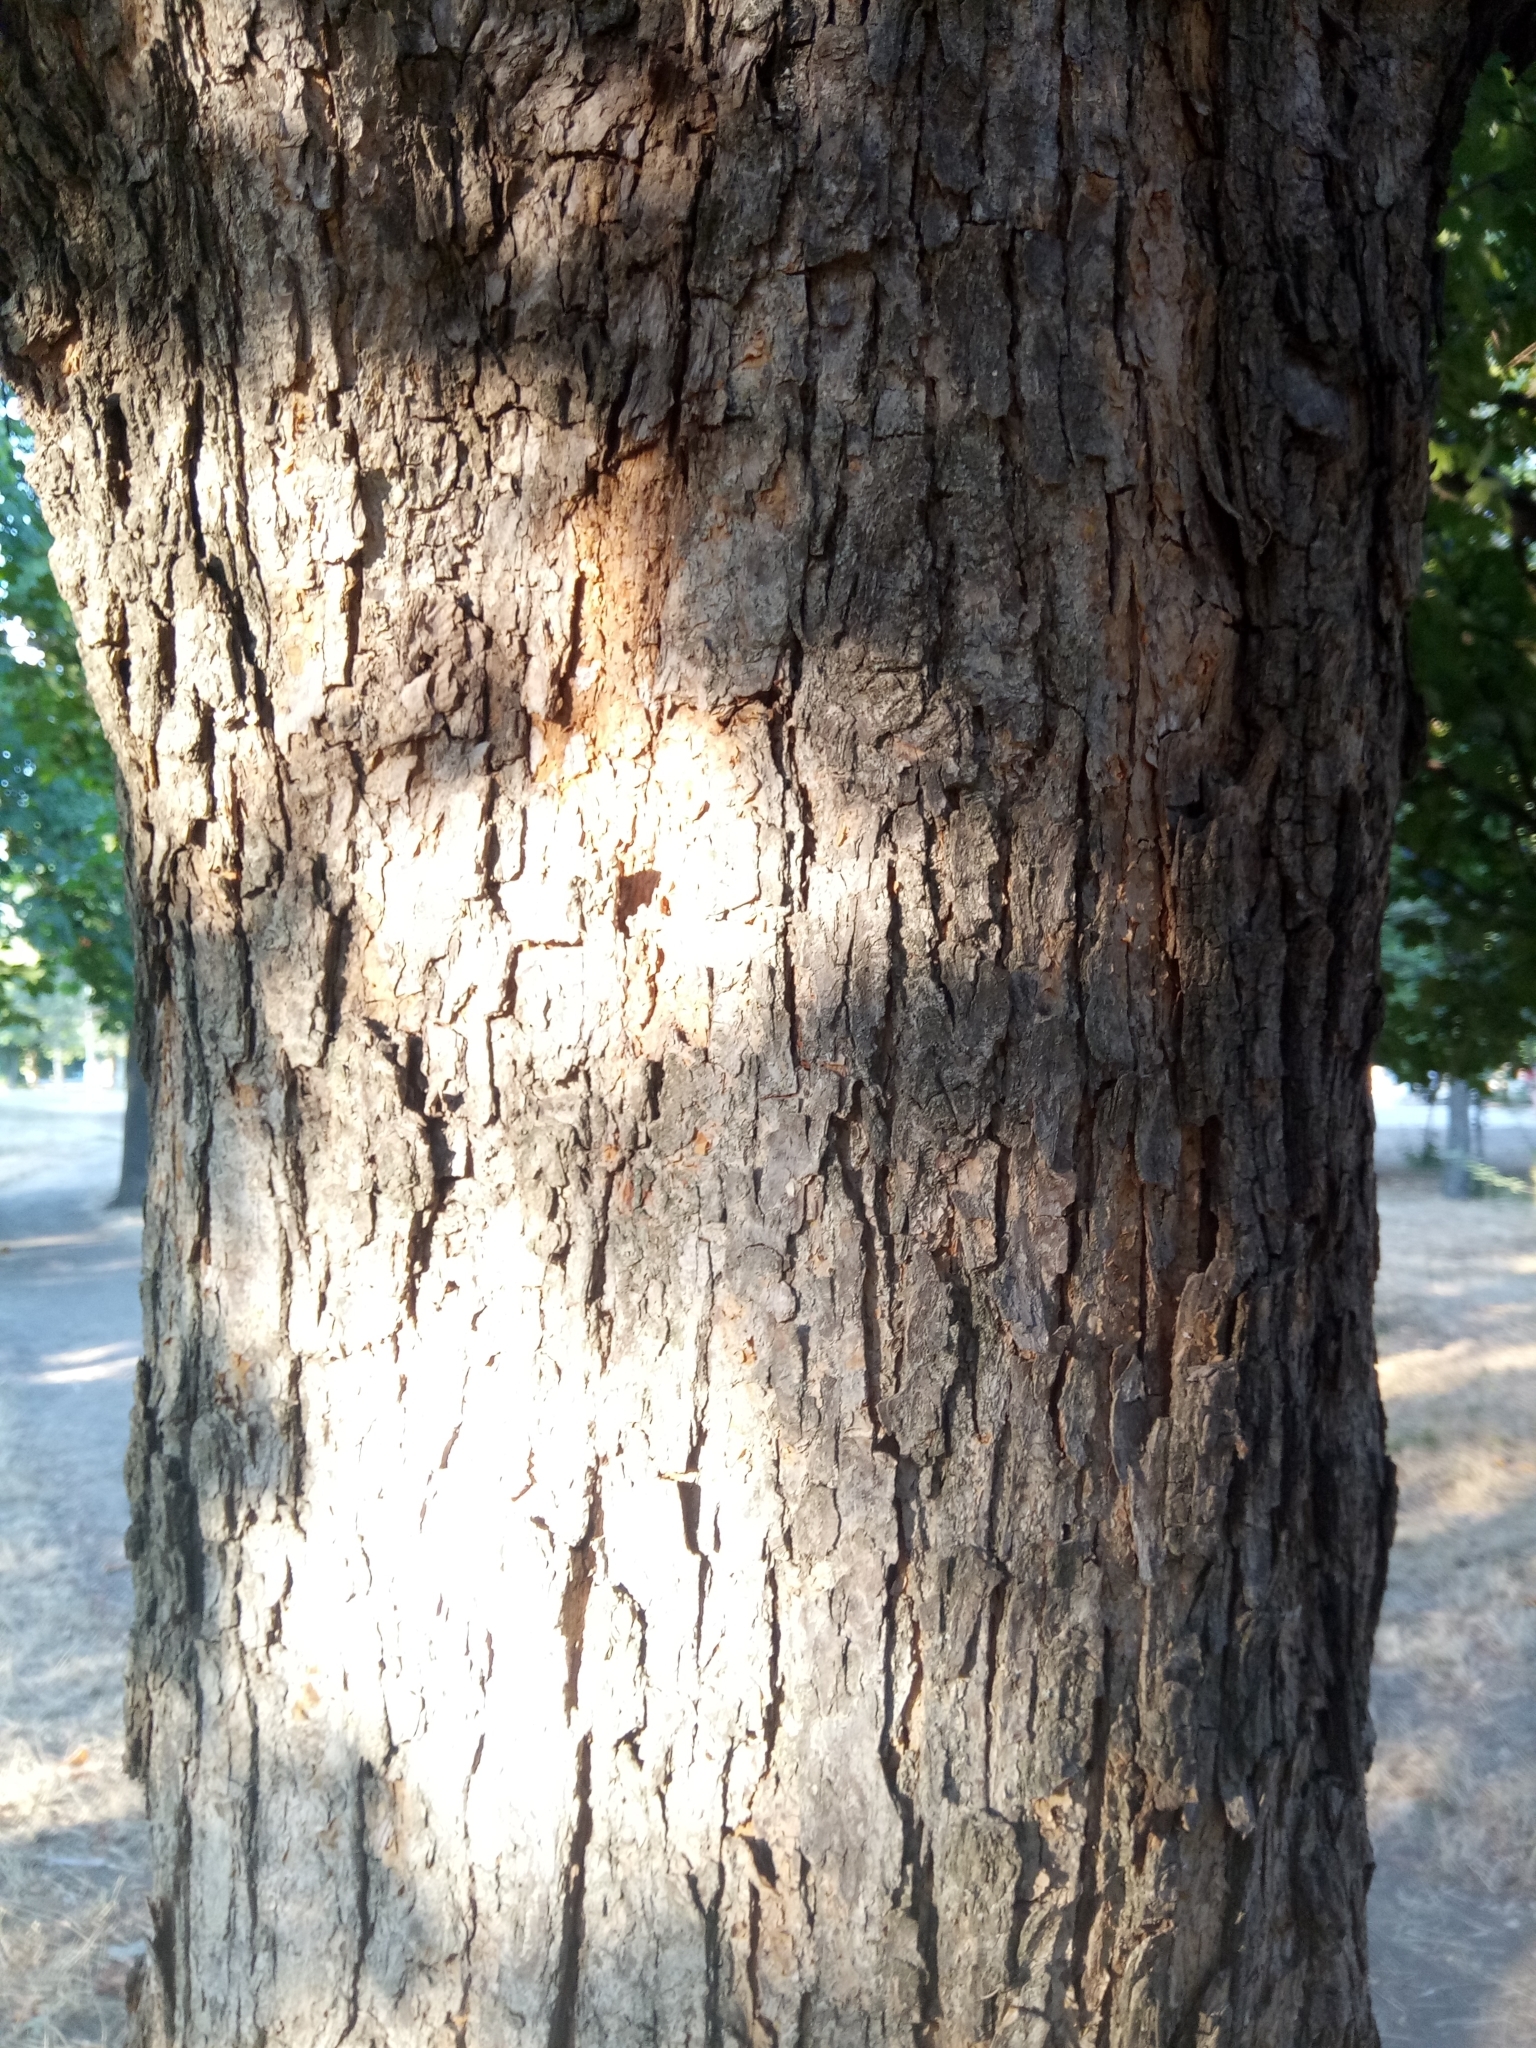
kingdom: Plantae
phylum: Tracheophyta
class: Magnoliopsida
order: Sapindales
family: Sapindaceae
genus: Acer
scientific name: Acer campestre
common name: Field maple
